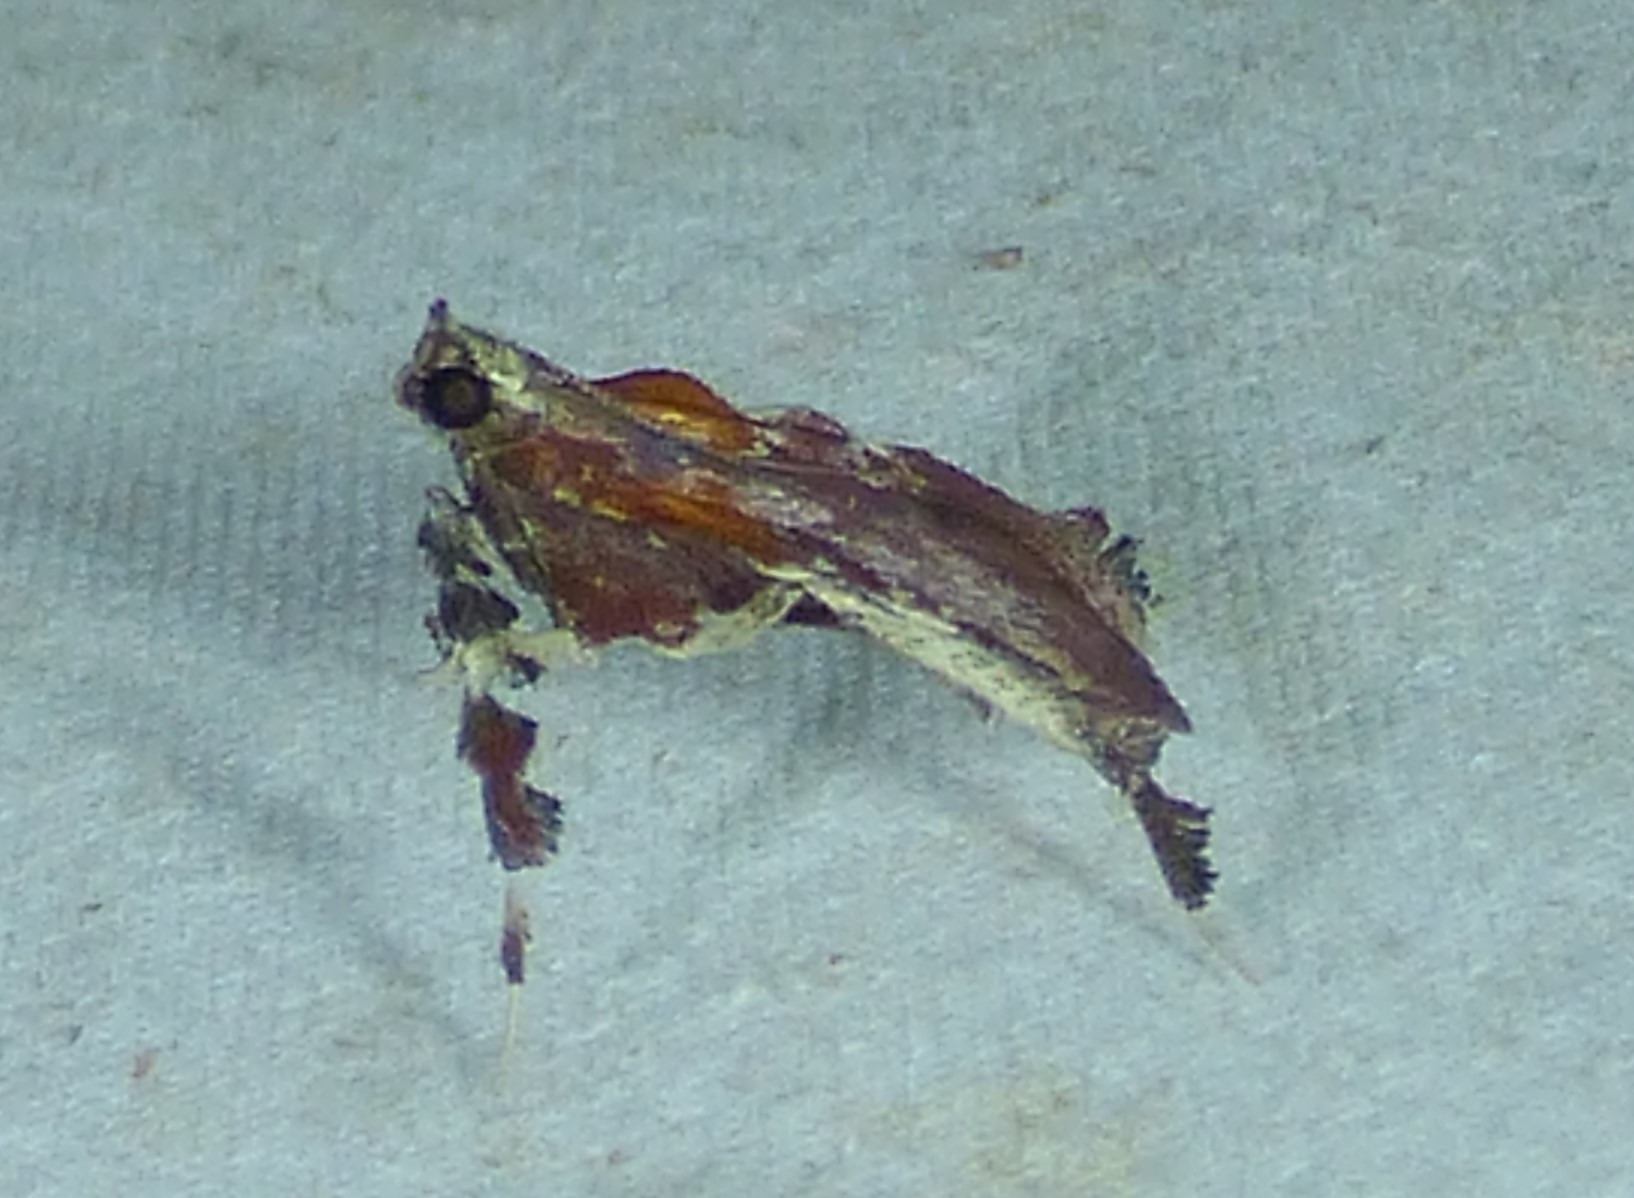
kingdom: Animalia
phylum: Arthropoda
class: Insecta
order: Lepidoptera
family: Pyralidae
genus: Galasa
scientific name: Galasa nigrinodis
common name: Boxwood leaftier moth
